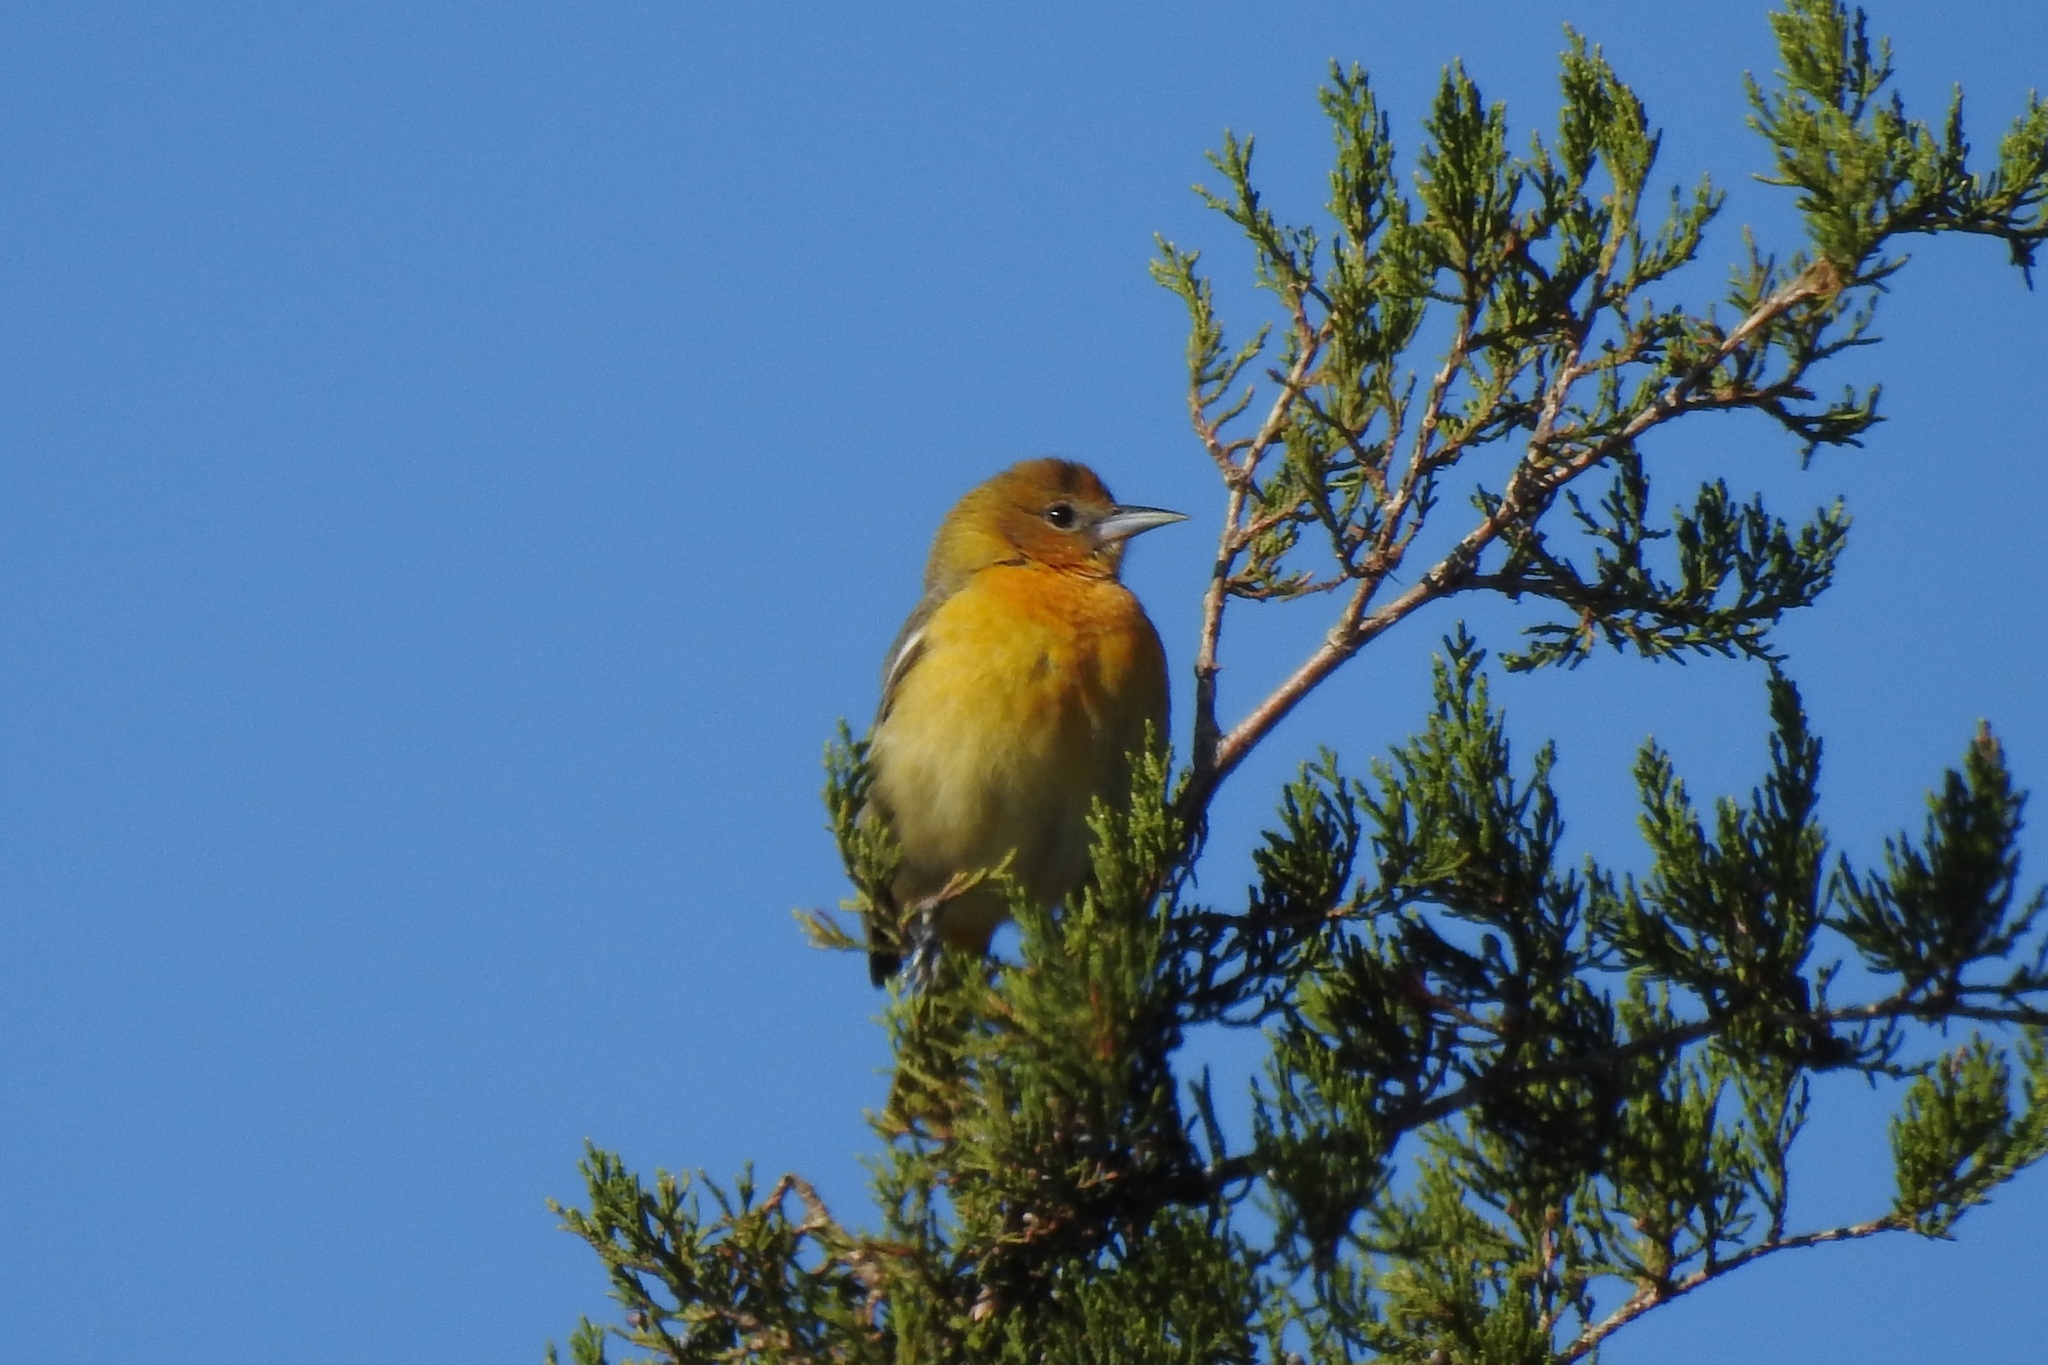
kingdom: Animalia
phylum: Chordata
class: Aves
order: Passeriformes
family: Icteridae
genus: Icterus
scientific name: Icterus galbula
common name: Baltimore oriole
